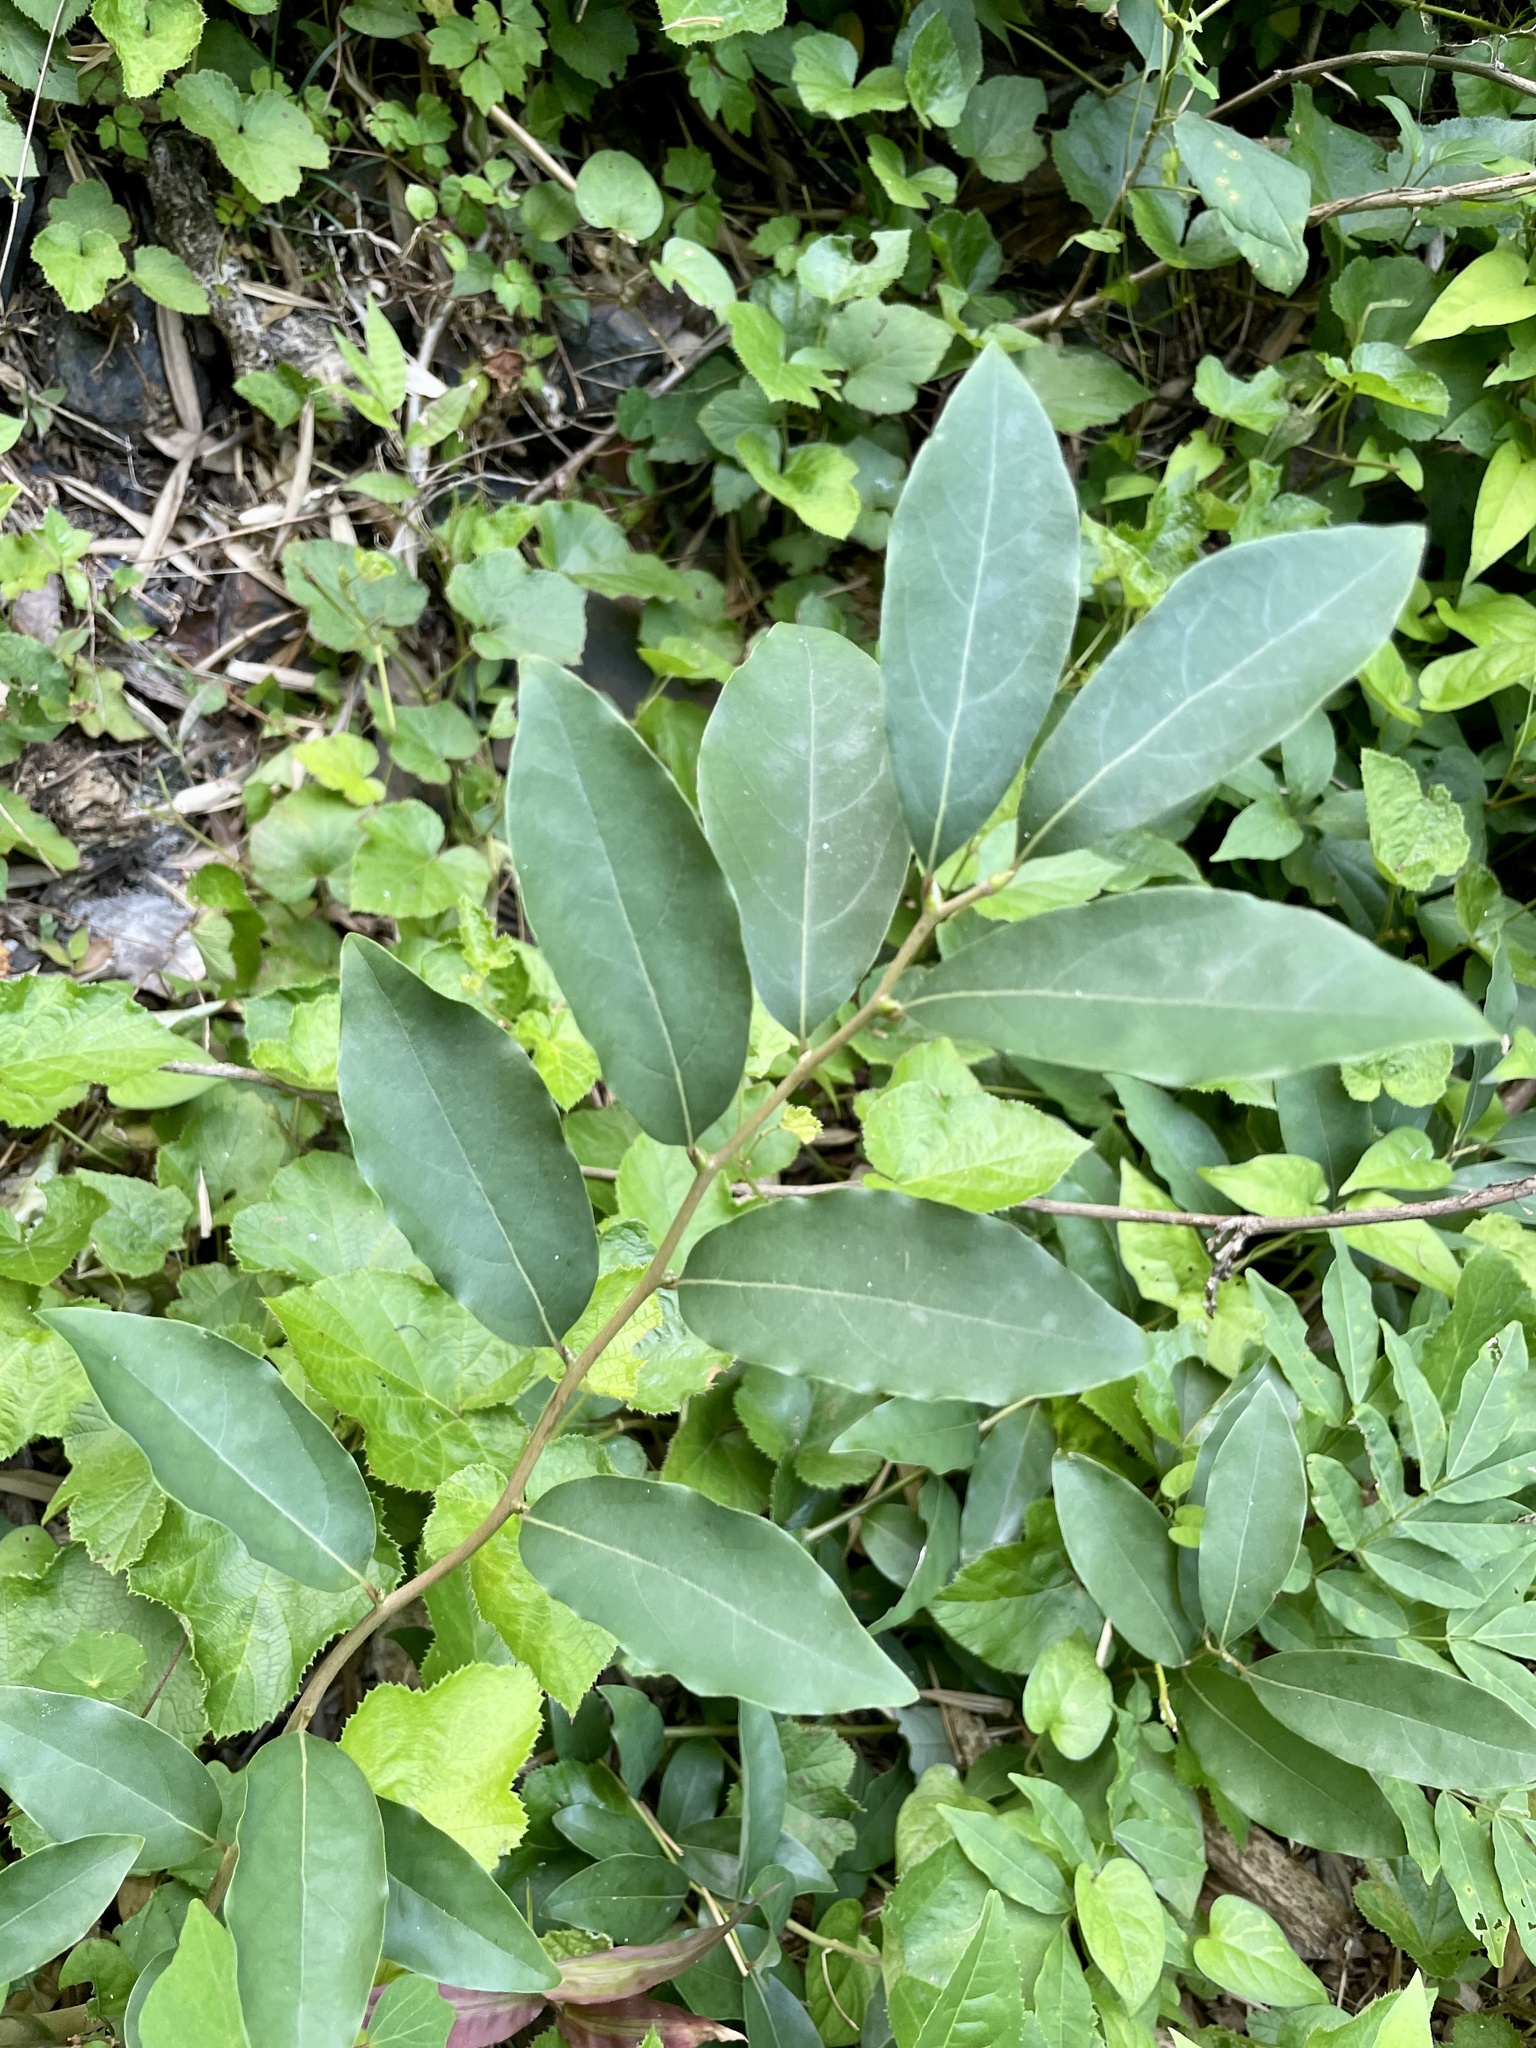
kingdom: Plantae
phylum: Tracheophyta
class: Magnoliopsida
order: Laurales
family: Lauraceae
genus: Lindera
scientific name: Lindera glauca
